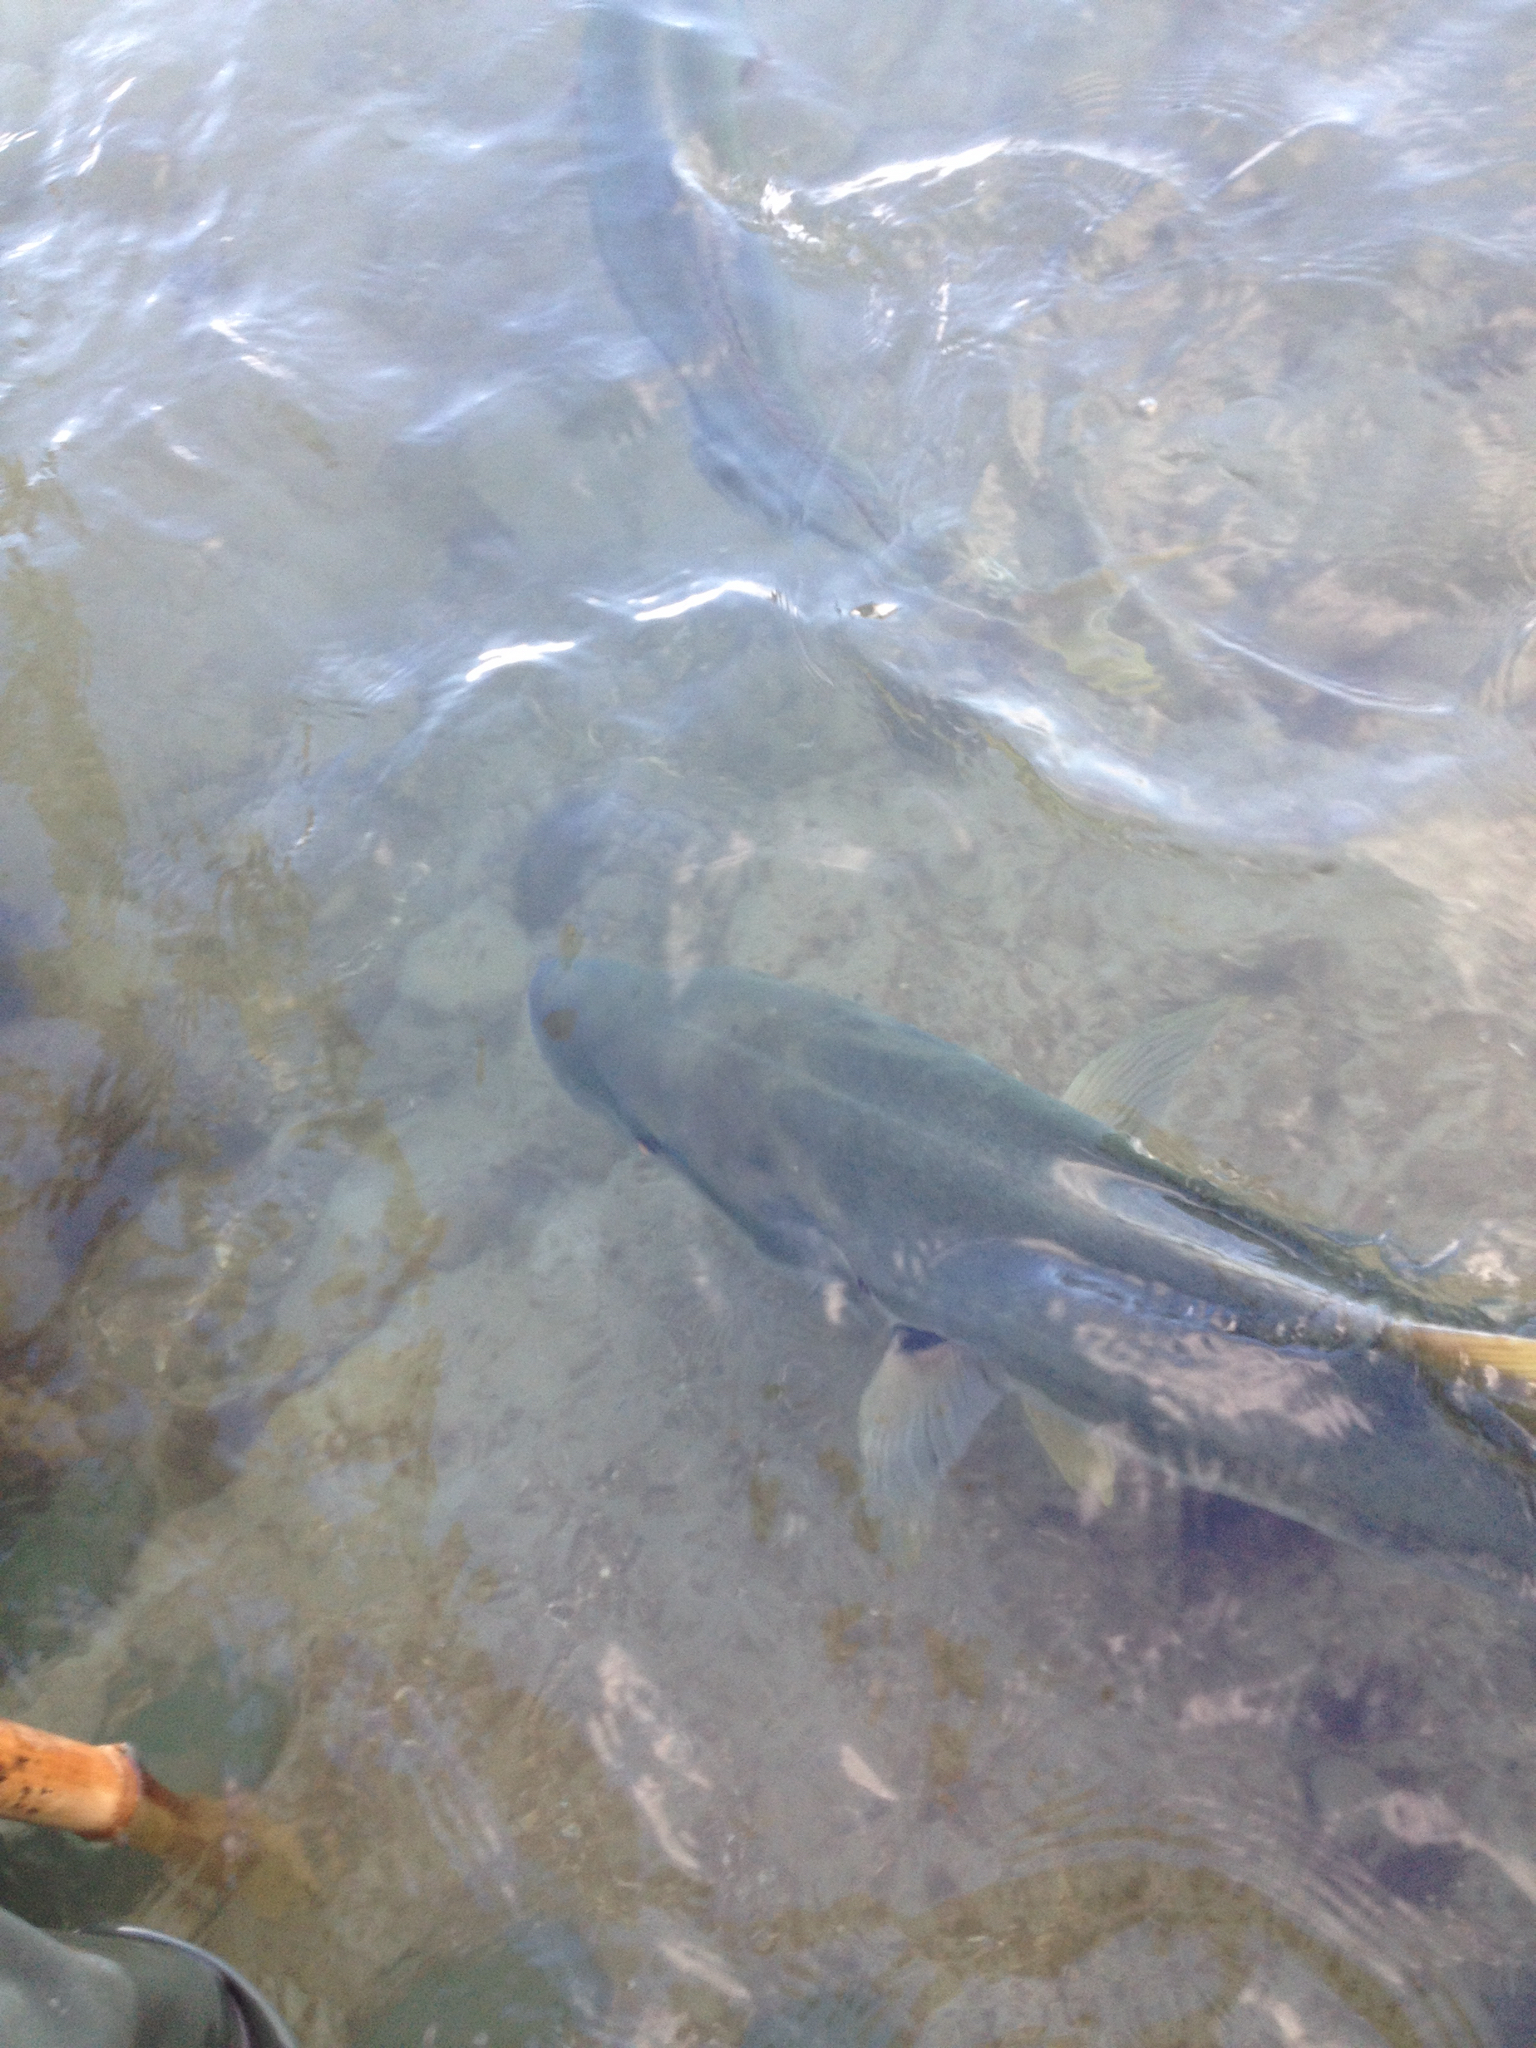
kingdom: Animalia
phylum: Chordata
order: Perciformes
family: Carangidae
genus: Seriola
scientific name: Seriola lalandi
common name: Yellowtail kingfish
